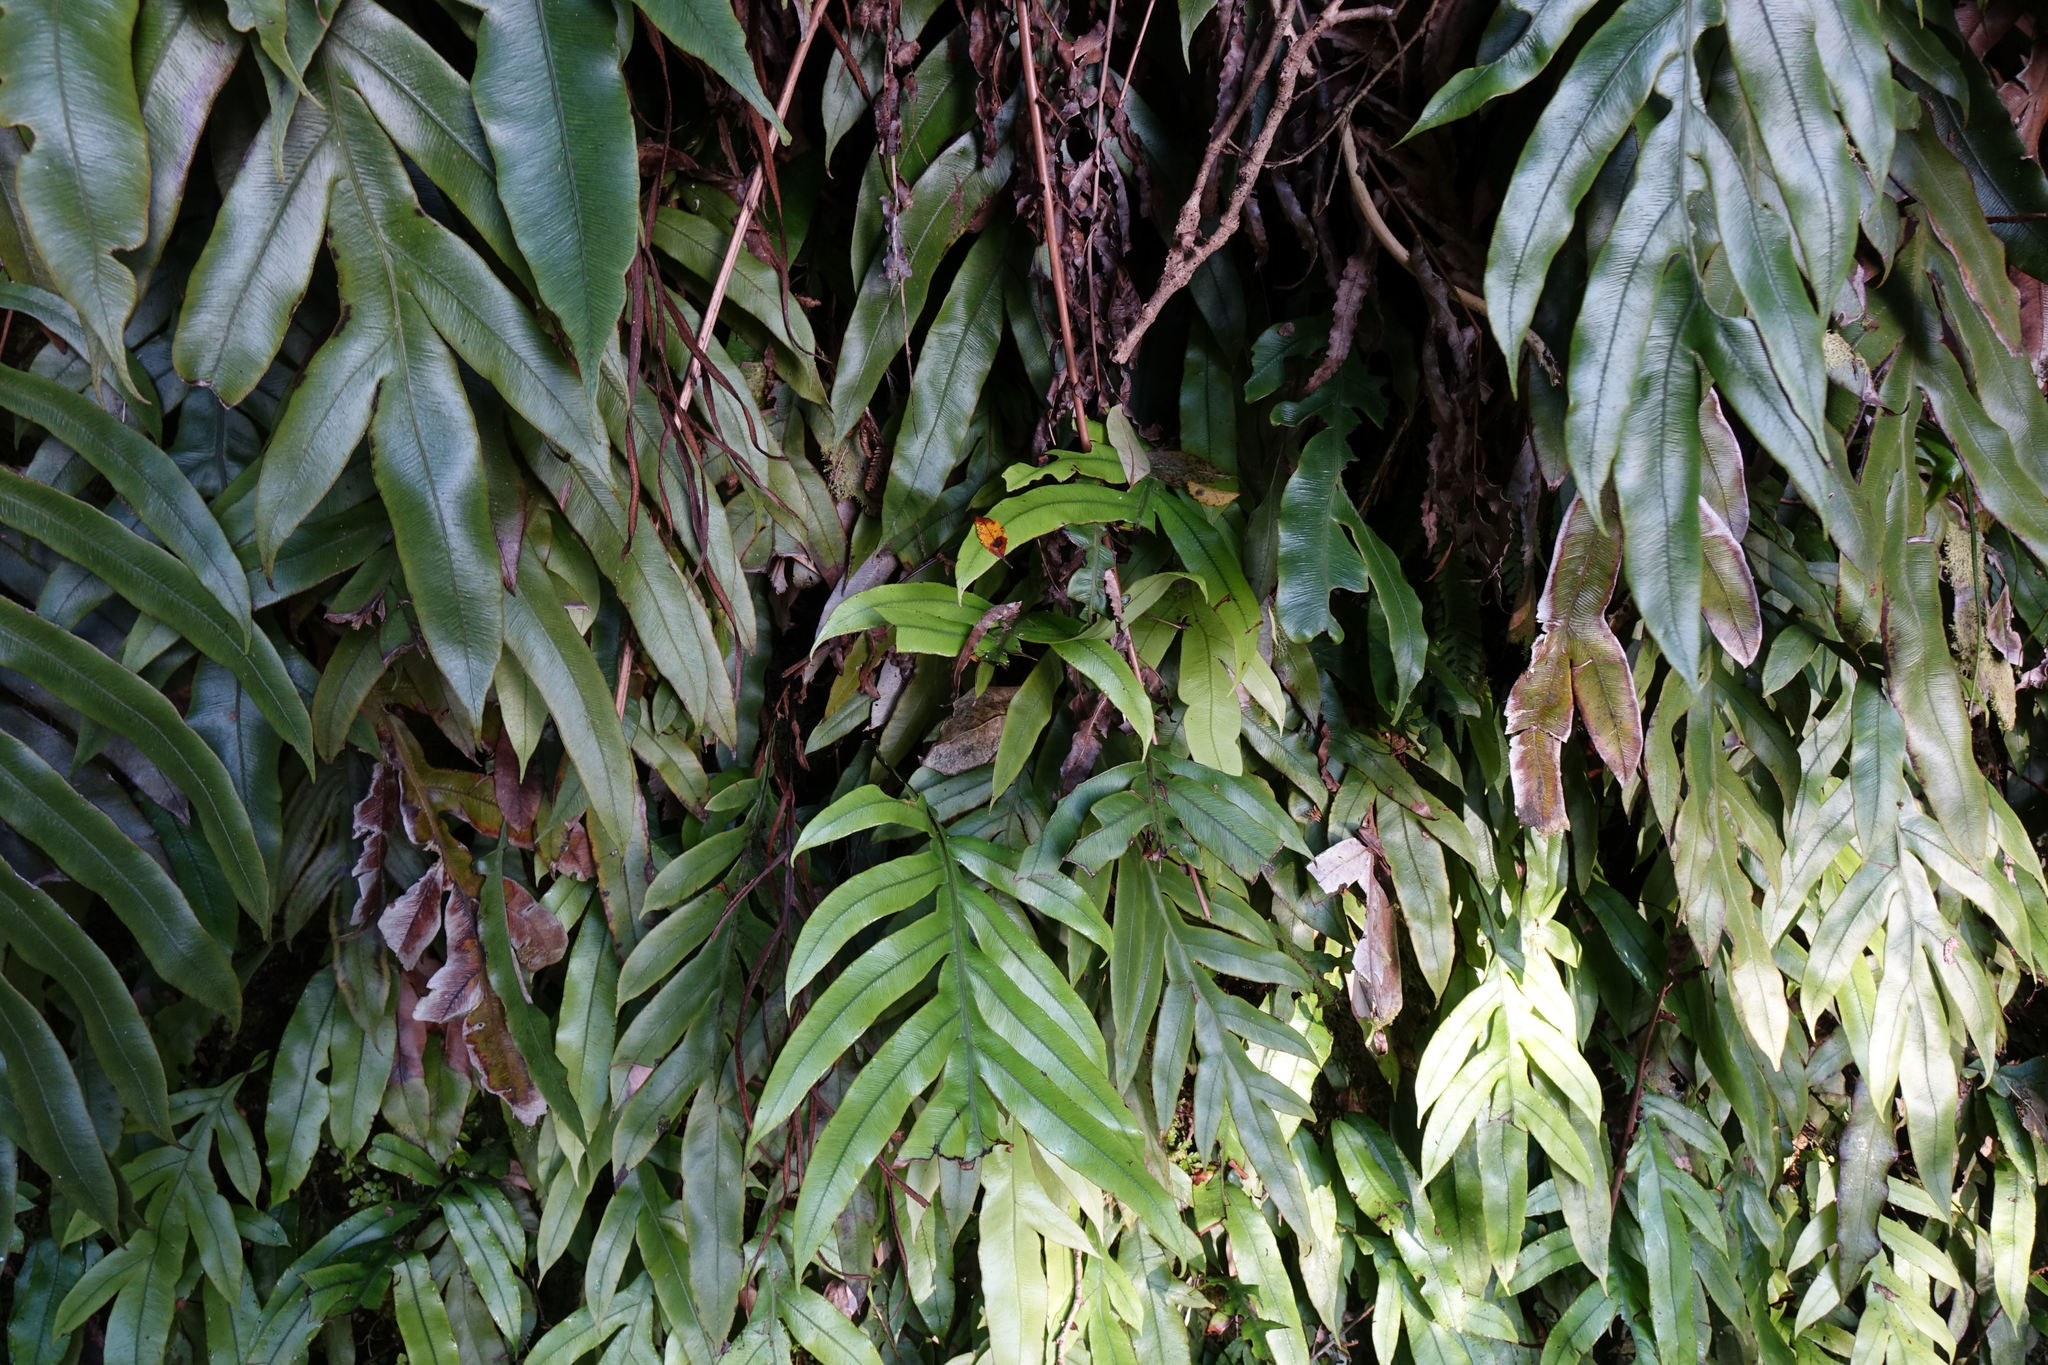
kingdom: Plantae
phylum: Tracheophyta
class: Polypodiopsida
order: Polypodiales
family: Blechnaceae
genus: Austroblechnum
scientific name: Austroblechnum colensoi
